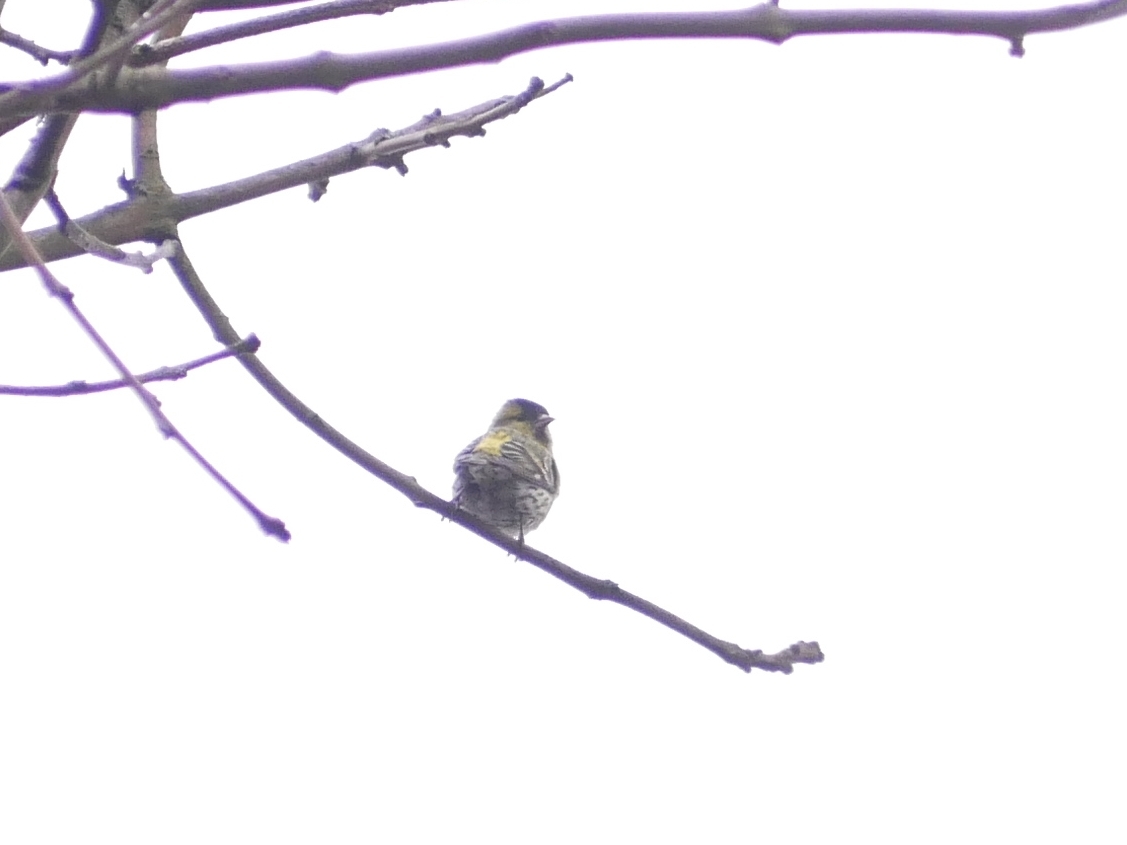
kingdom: Animalia
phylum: Chordata
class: Aves
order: Passeriformes
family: Fringillidae
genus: Spinus
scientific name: Spinus spinus
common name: Eurasian siskin
